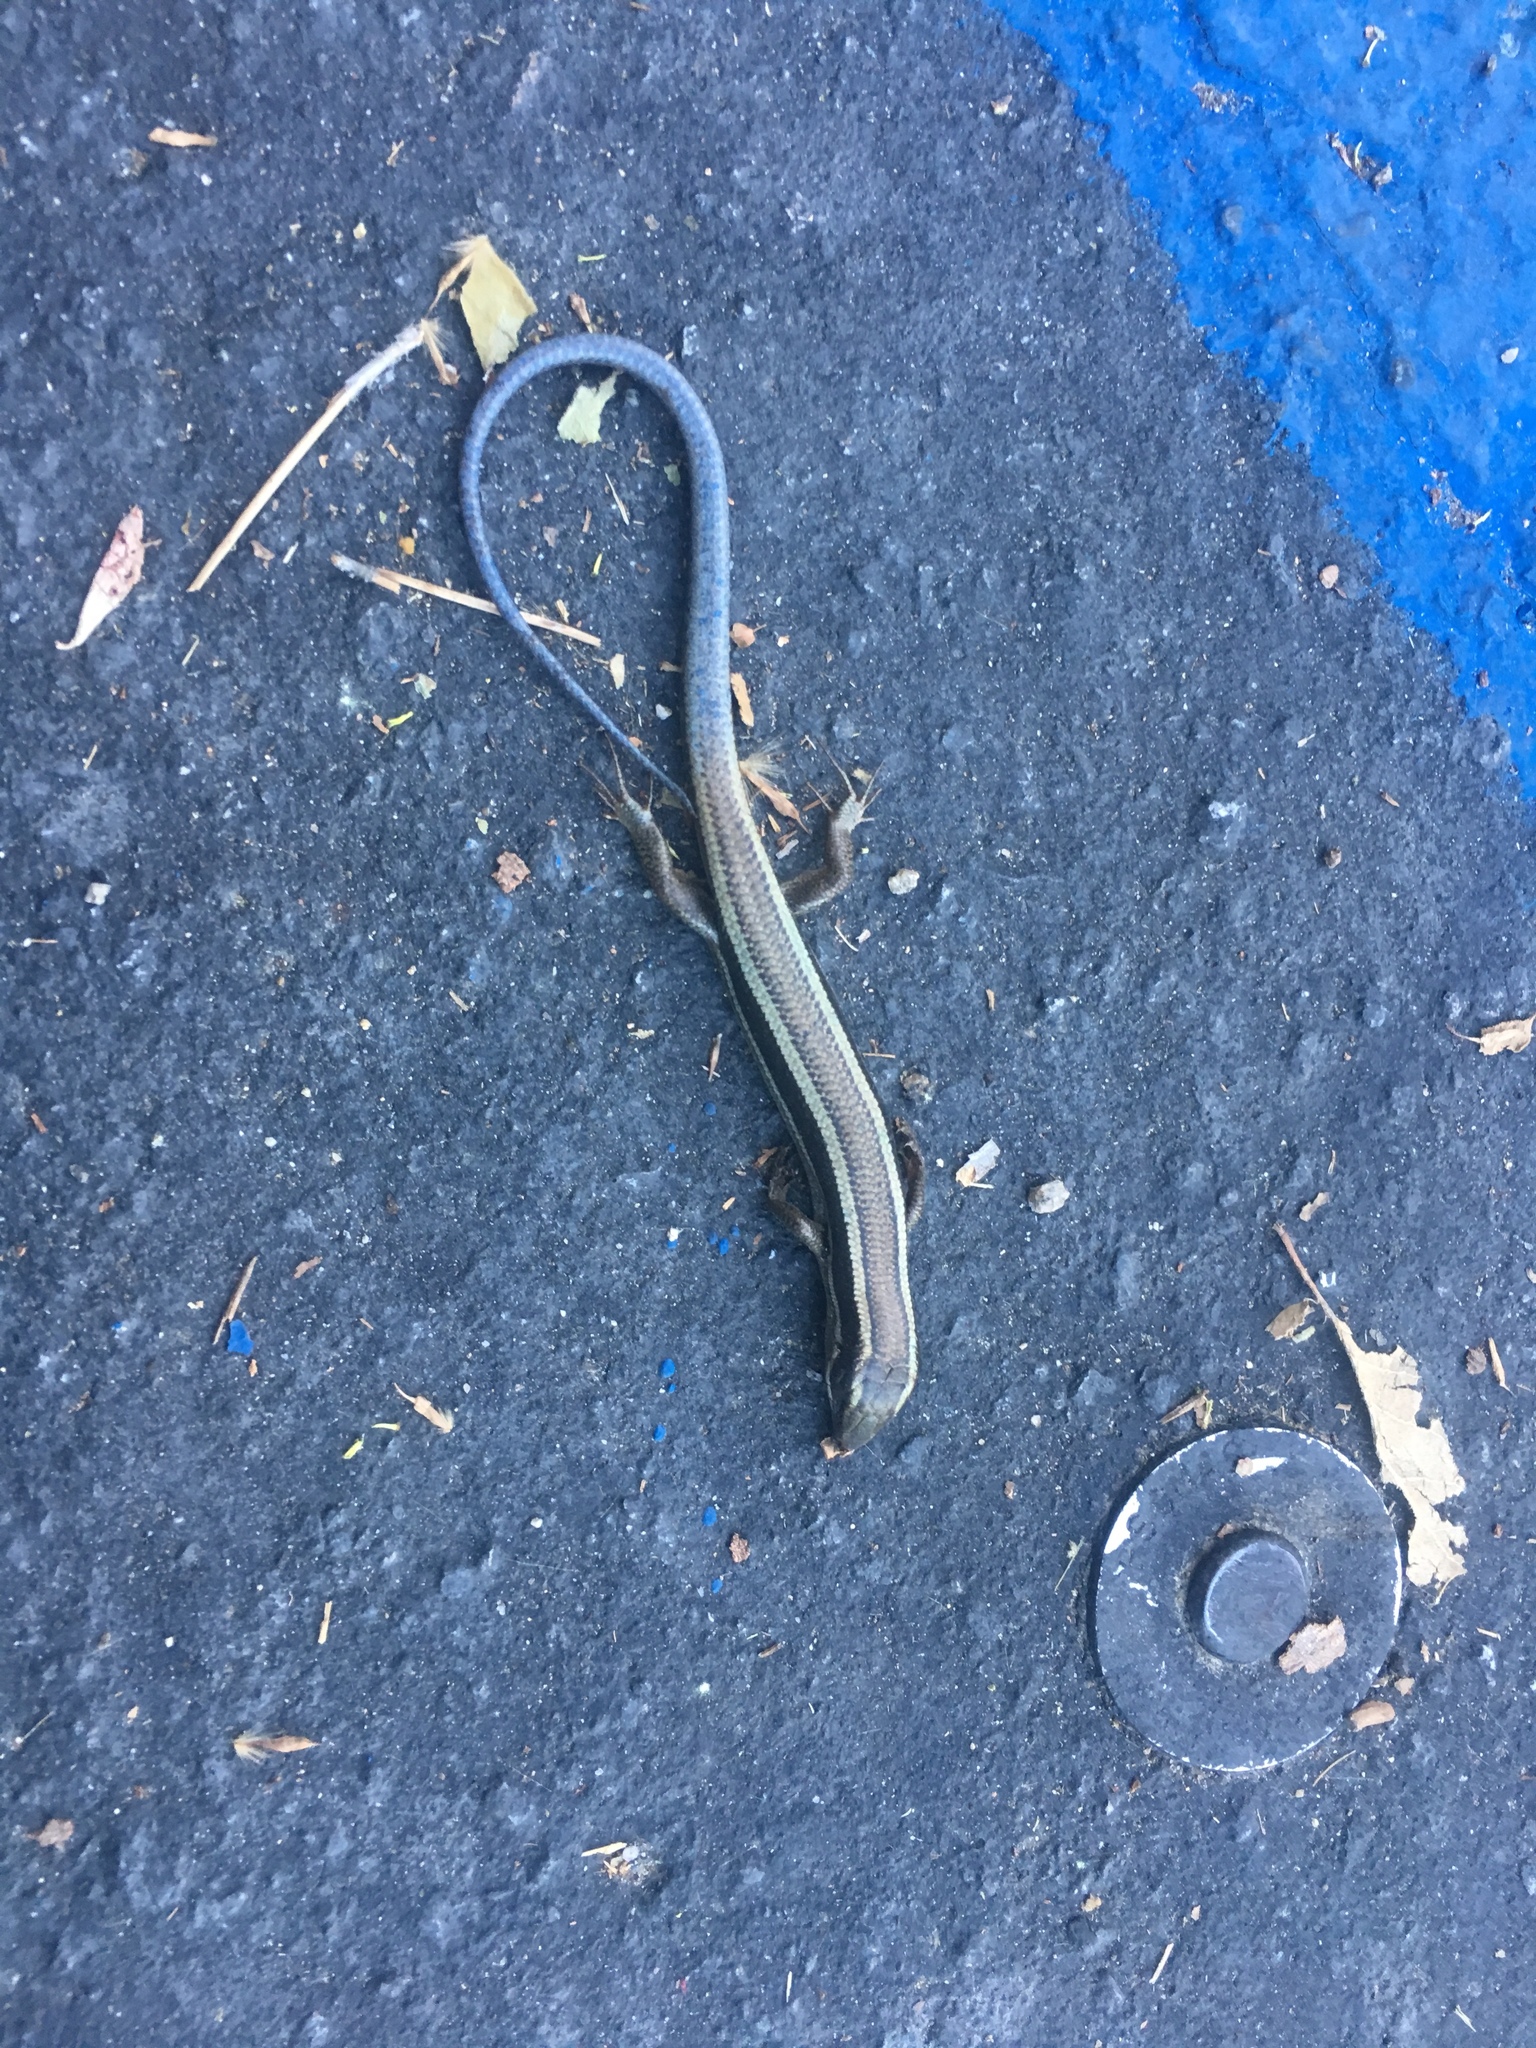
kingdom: Animalia
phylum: Chordata
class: Squamata
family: Scincidae
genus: Plestiodon
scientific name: Plestiodon skiltonianus
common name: Coronado island skink [interparietalis]
